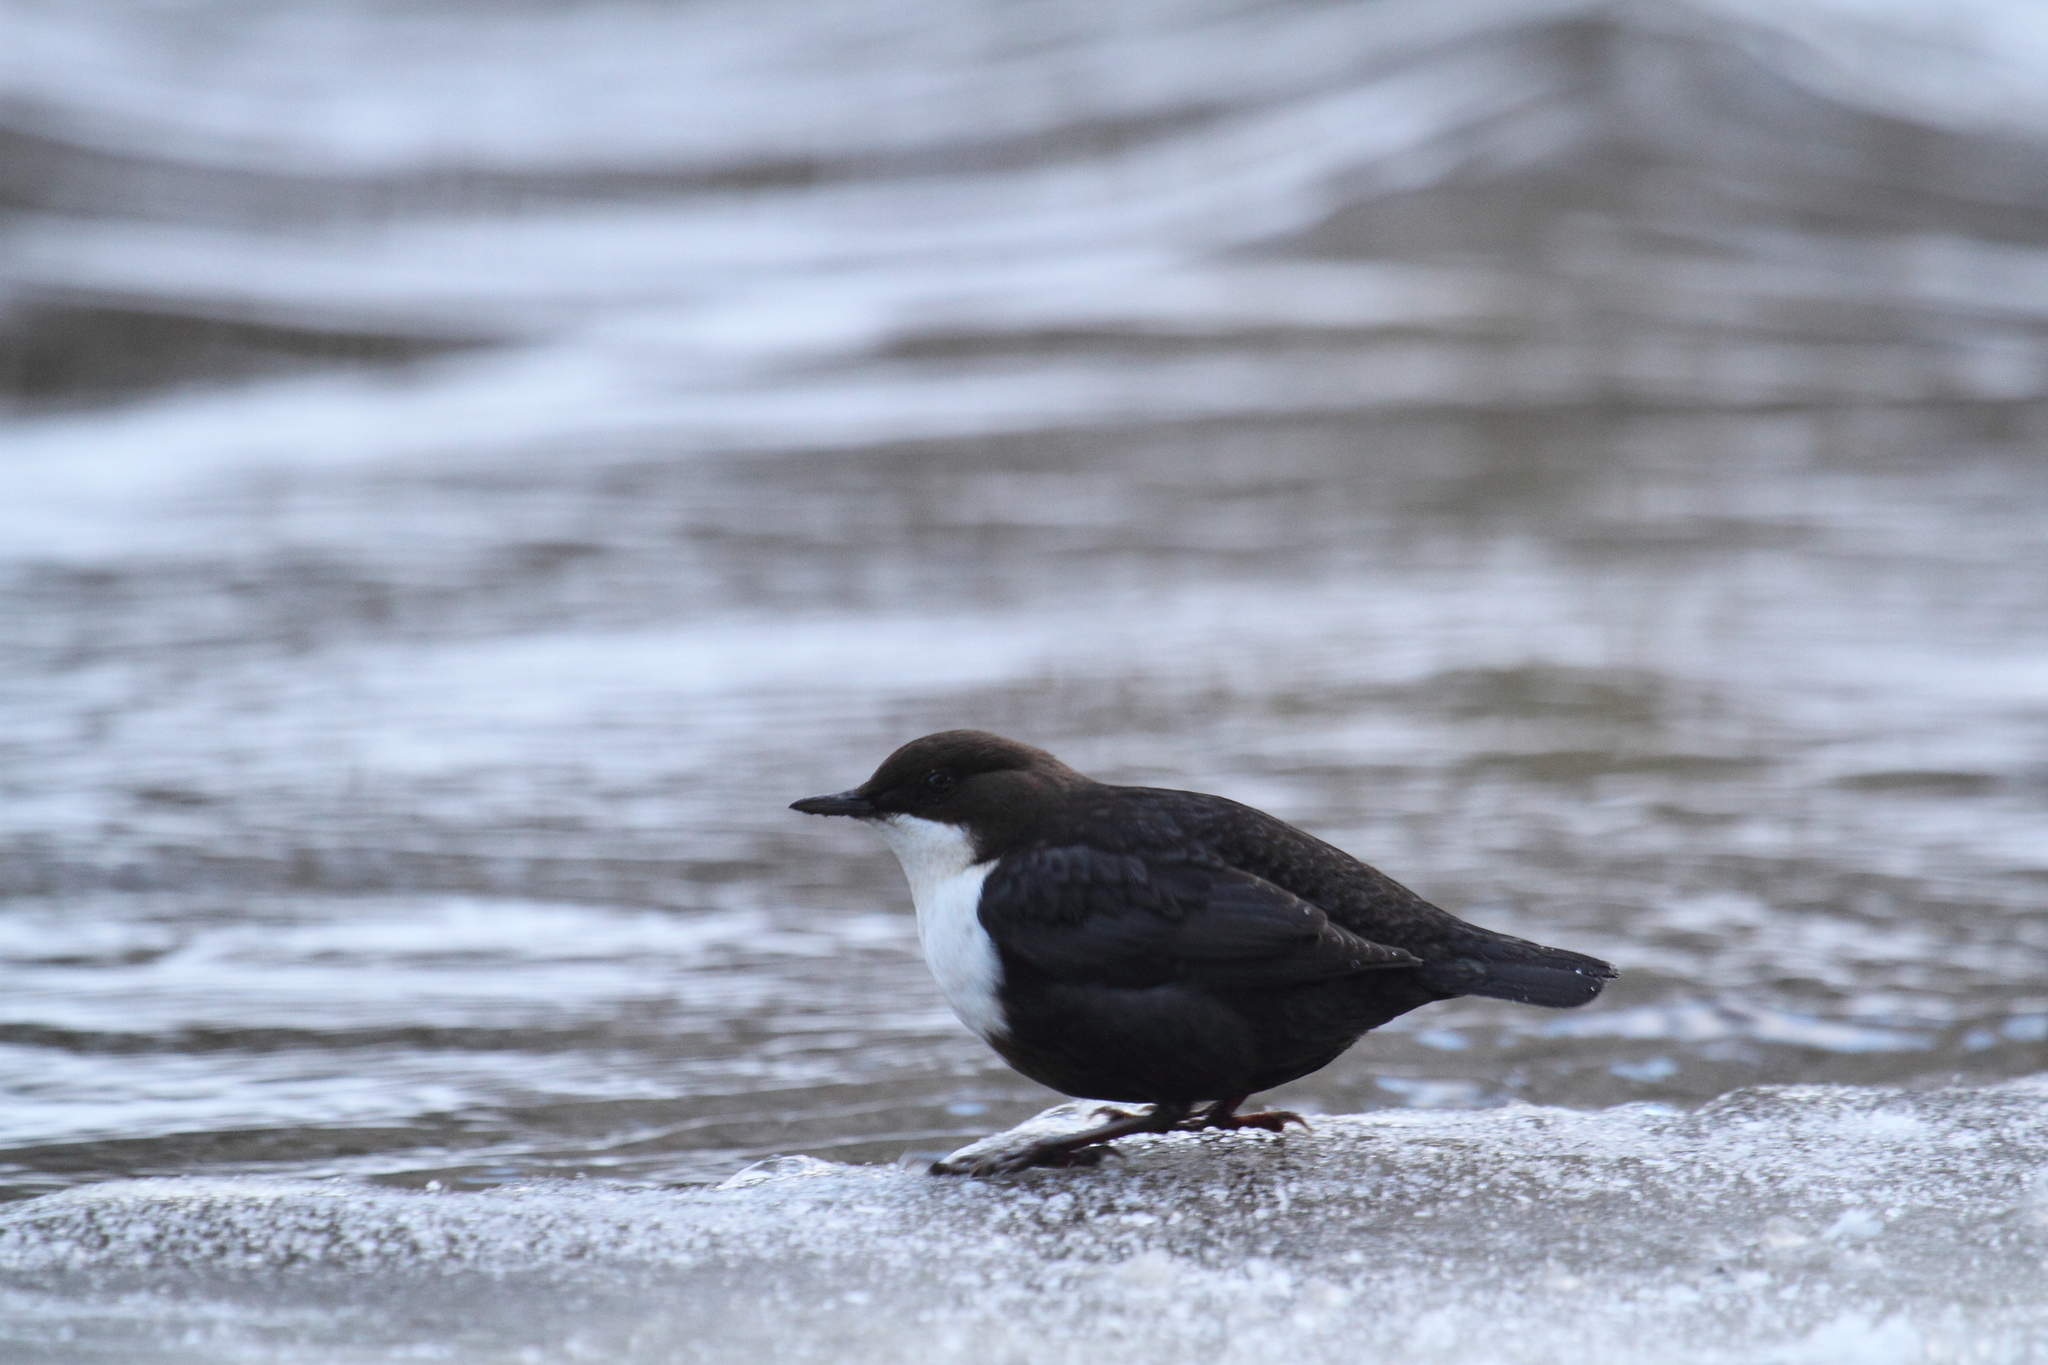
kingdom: Animalia
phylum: Chordata
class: Aves
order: Passeriformes
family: Cinclidae
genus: Cinclus
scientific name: Cinclus cinclus
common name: White-throated dipper
